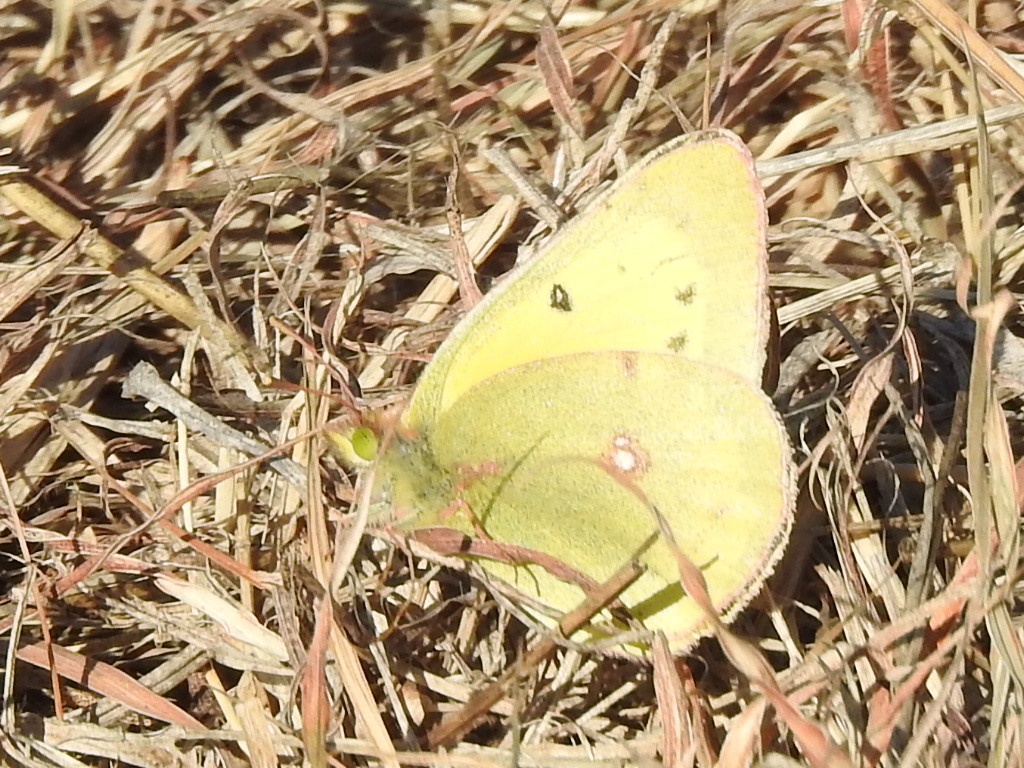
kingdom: Animalia
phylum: Arthropoda
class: Insecta
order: Lepidoptera
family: Pieridae
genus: Colias
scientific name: Colias eurytheme
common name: Alfalfa butterfly
